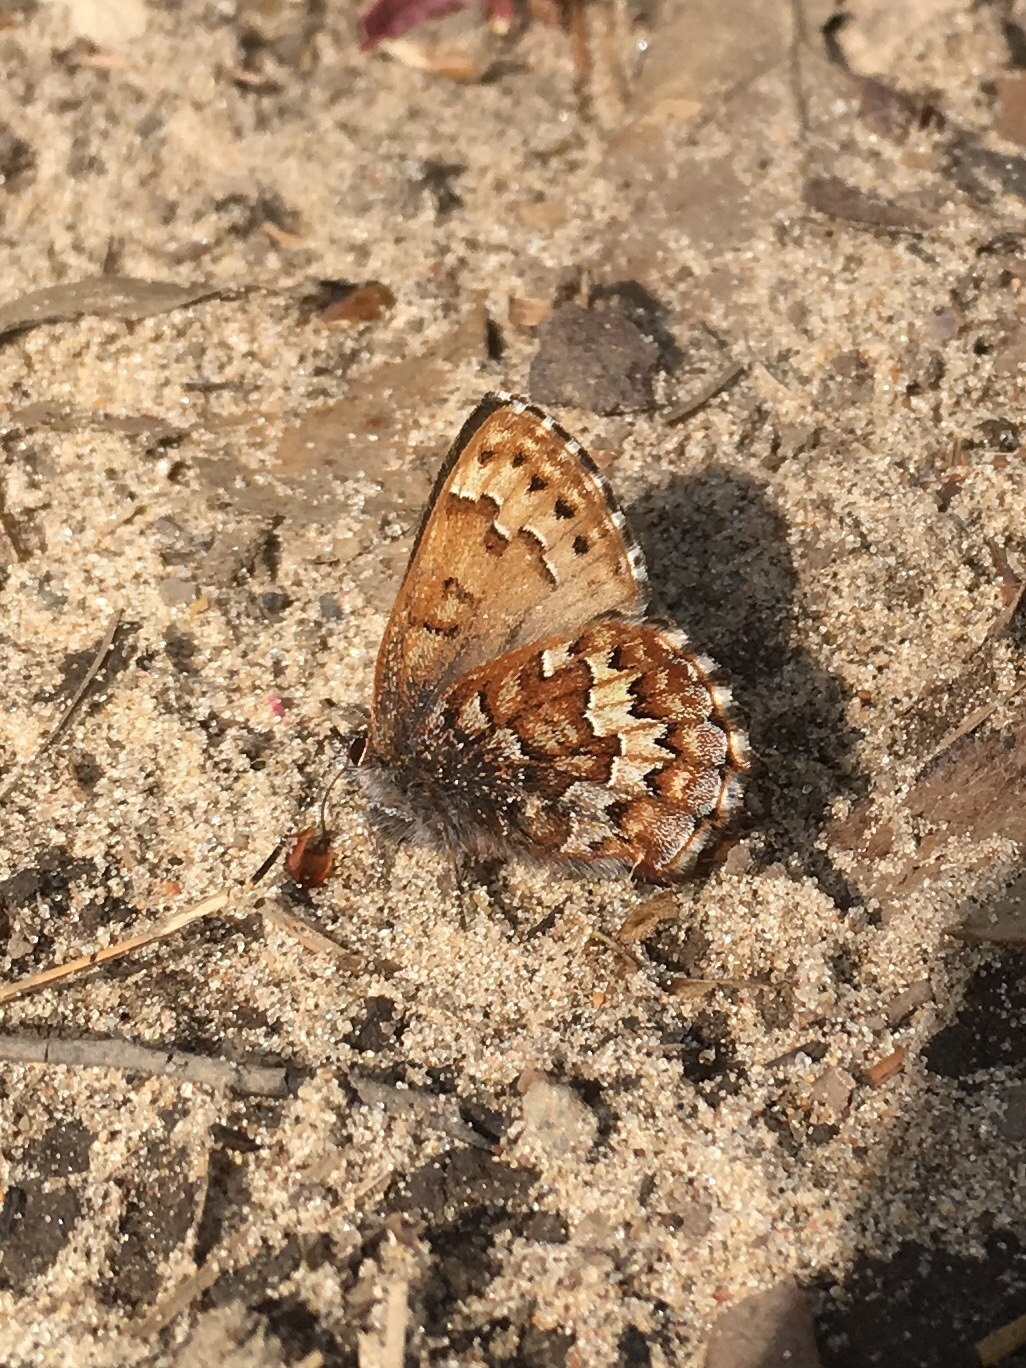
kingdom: Animalia
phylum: Arthropoda
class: Insecta
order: Lepidoptera
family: Lycaenidae
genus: Incisalia
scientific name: Incisalia niphon
